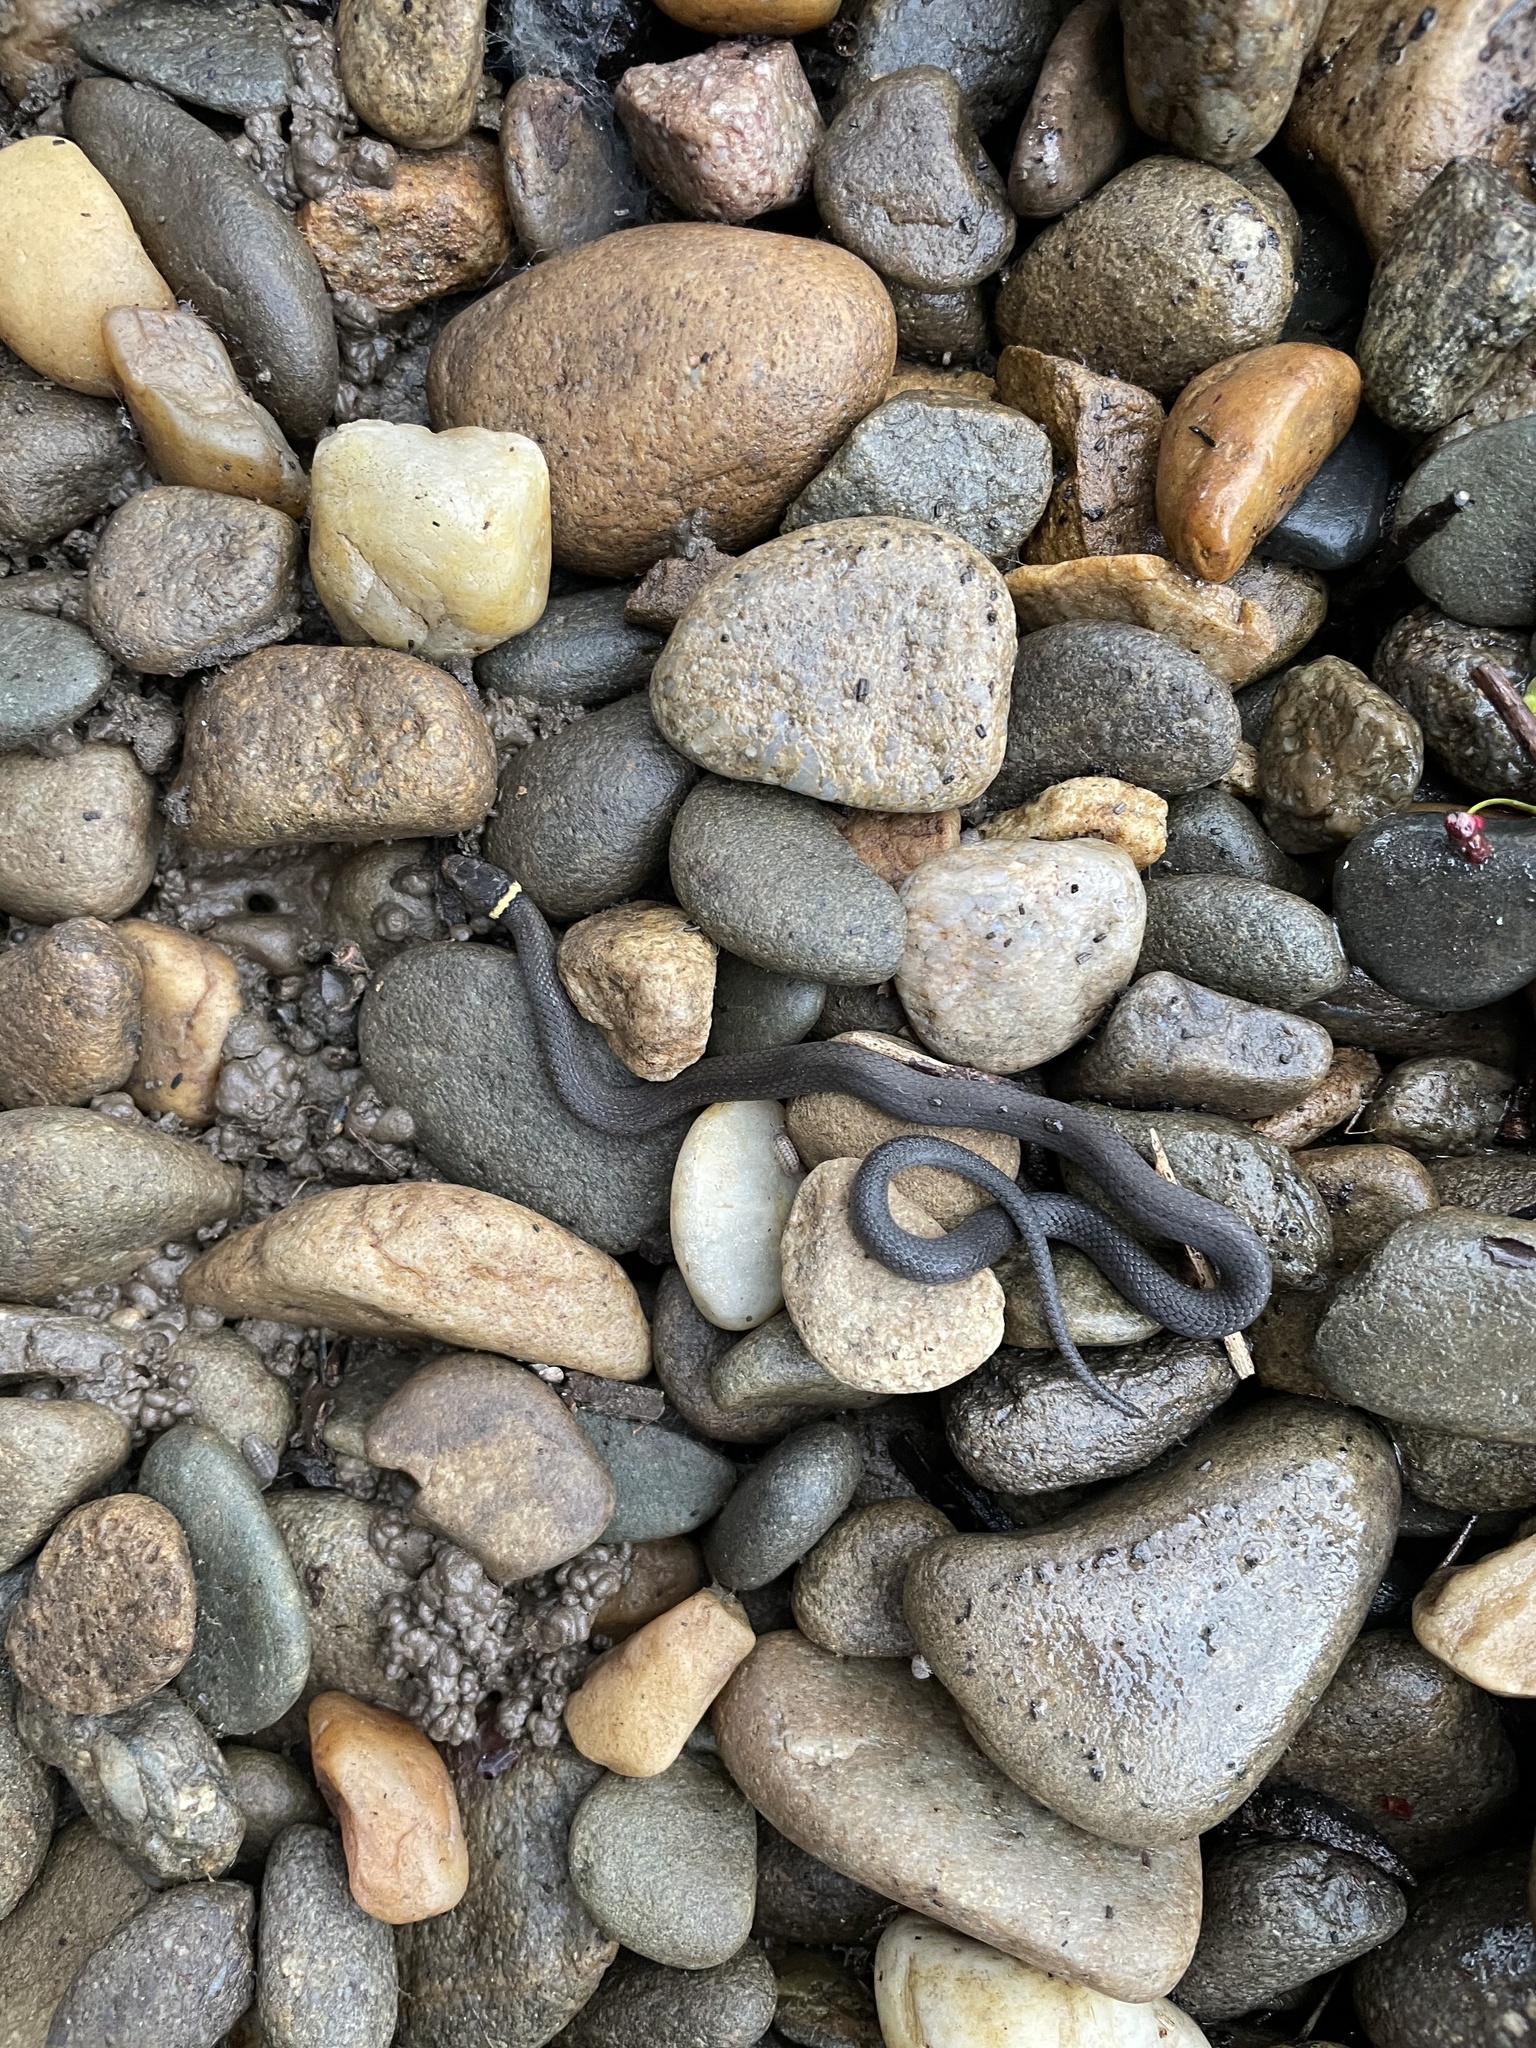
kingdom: Animalia
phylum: Chordata
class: Squamata
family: Colubridae
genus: Diadophis
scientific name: Diadophis punctatus
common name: Ringneck snake
